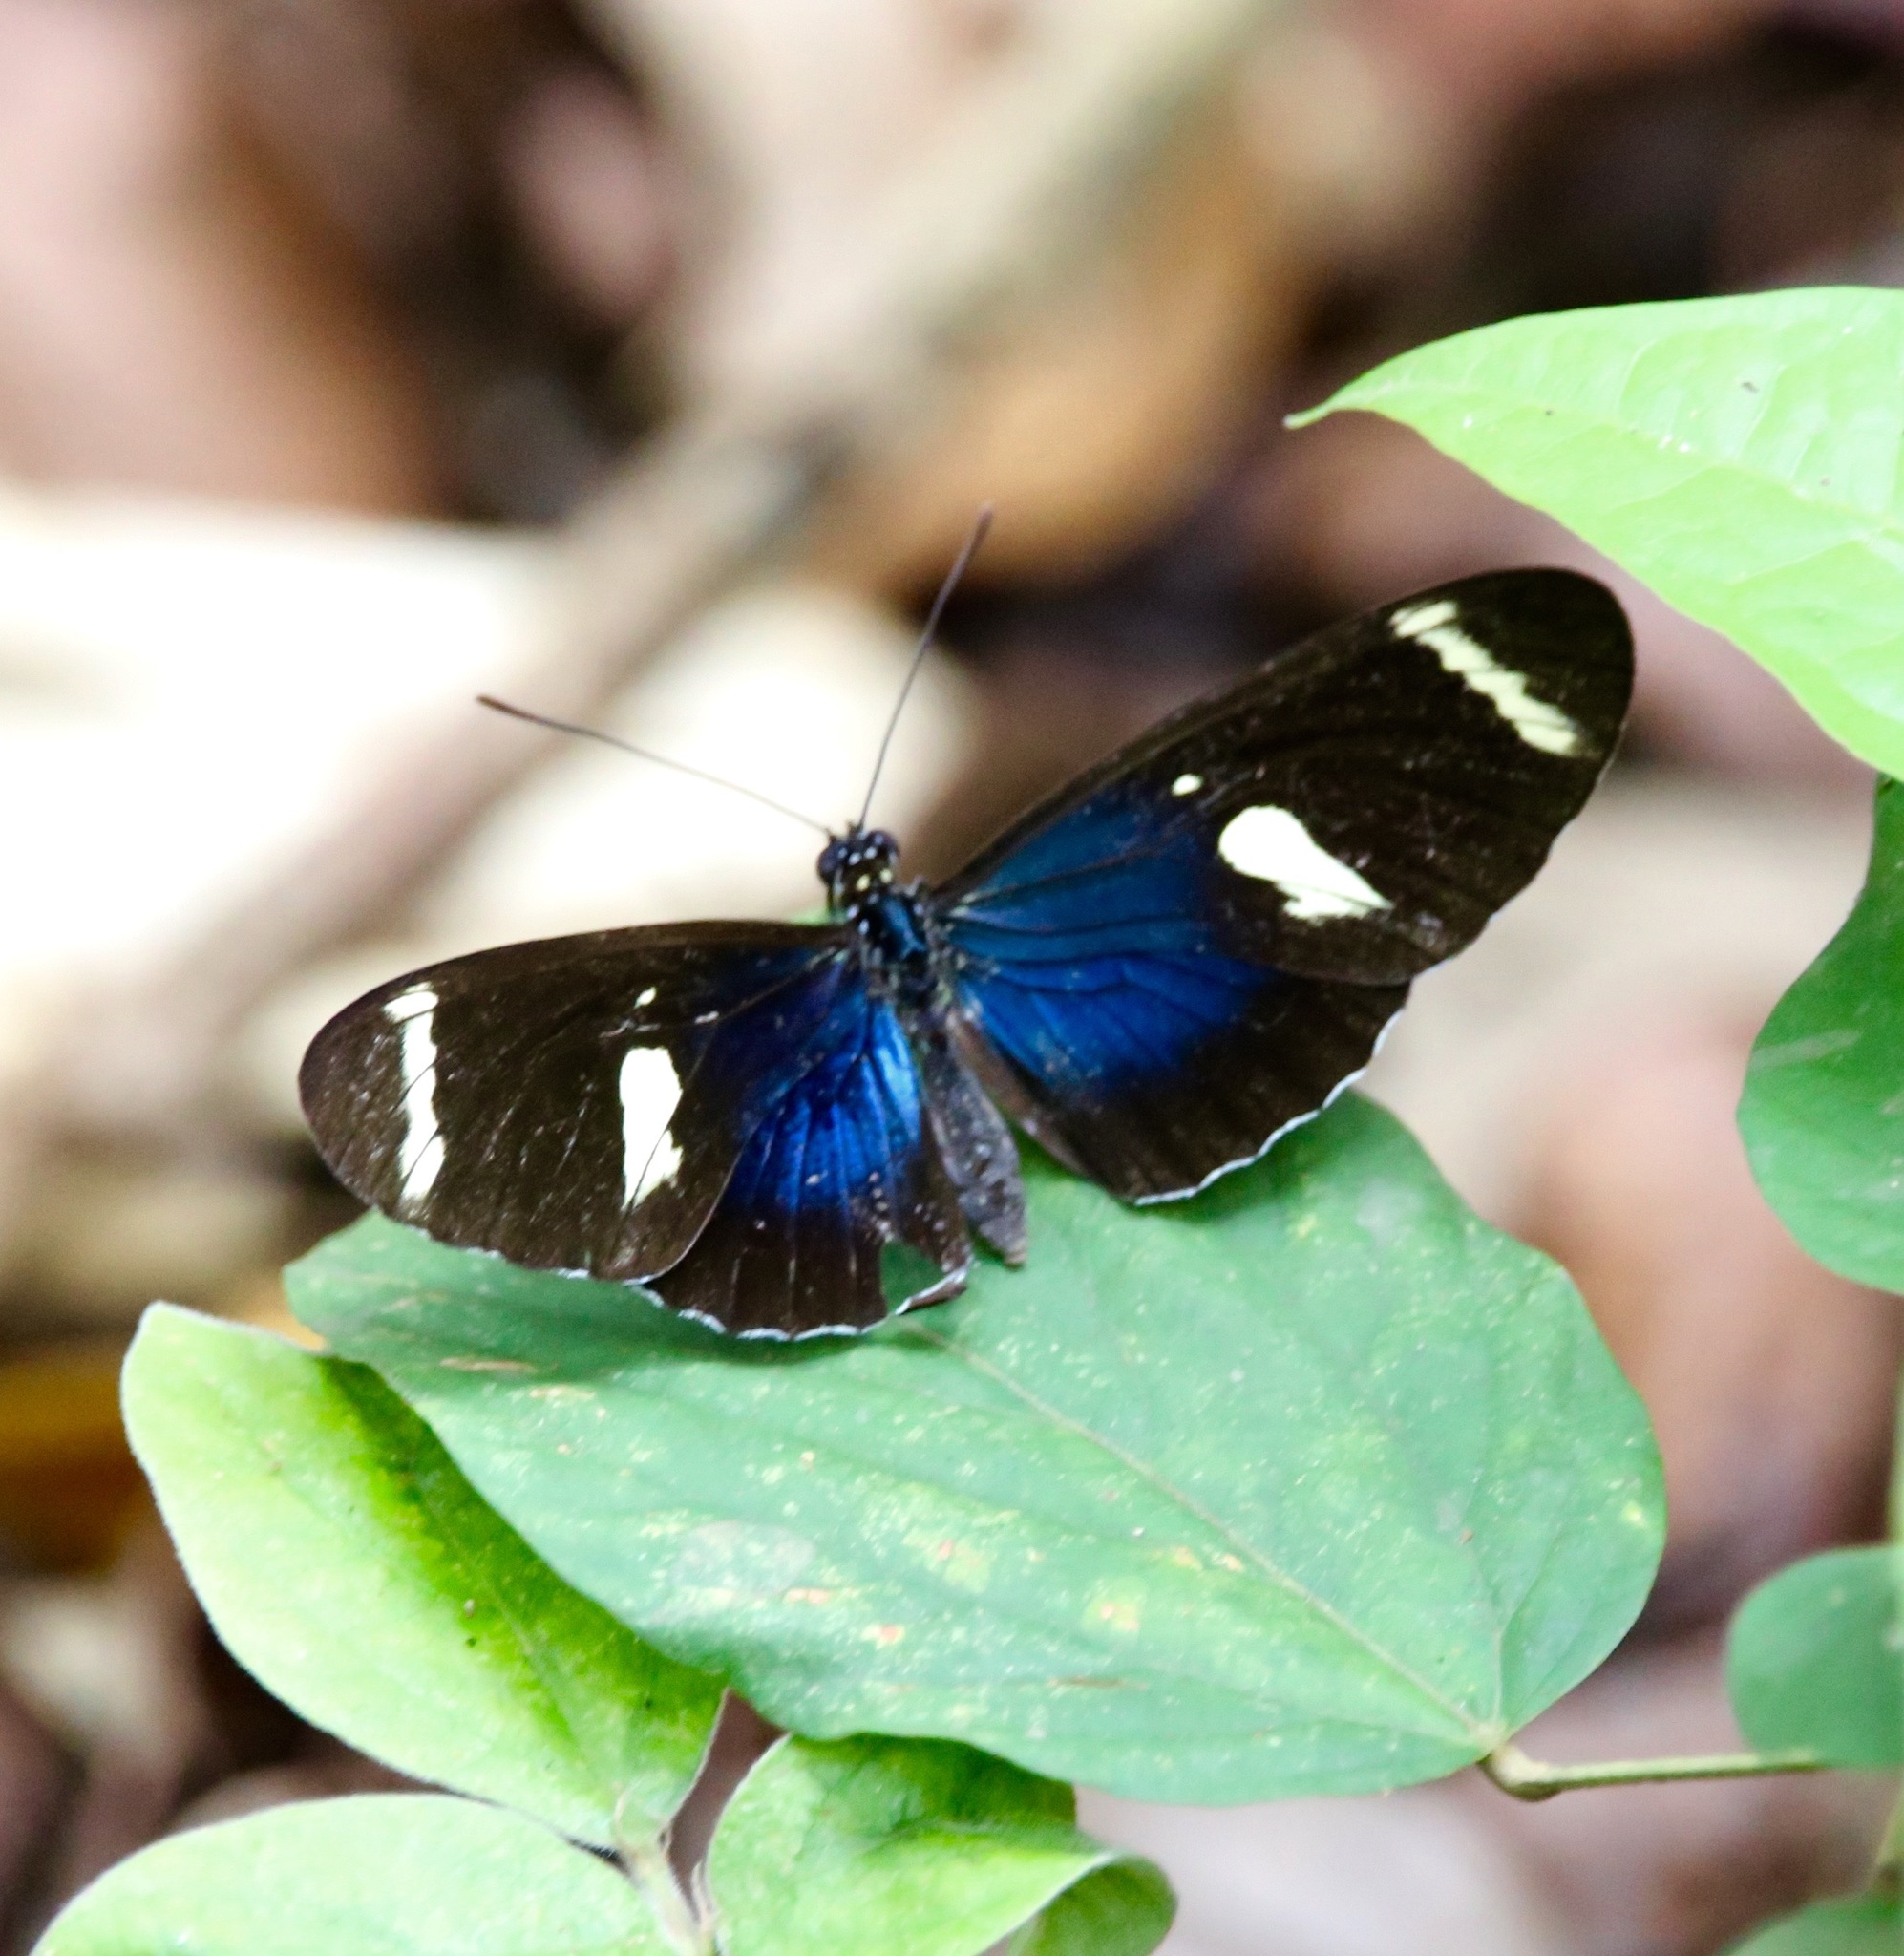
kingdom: Animalia
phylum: Arthropoda
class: Insecta
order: Lepidoptera
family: Nymphalidae
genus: Heliconius
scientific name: Heliconius sara
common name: Sara longwing
